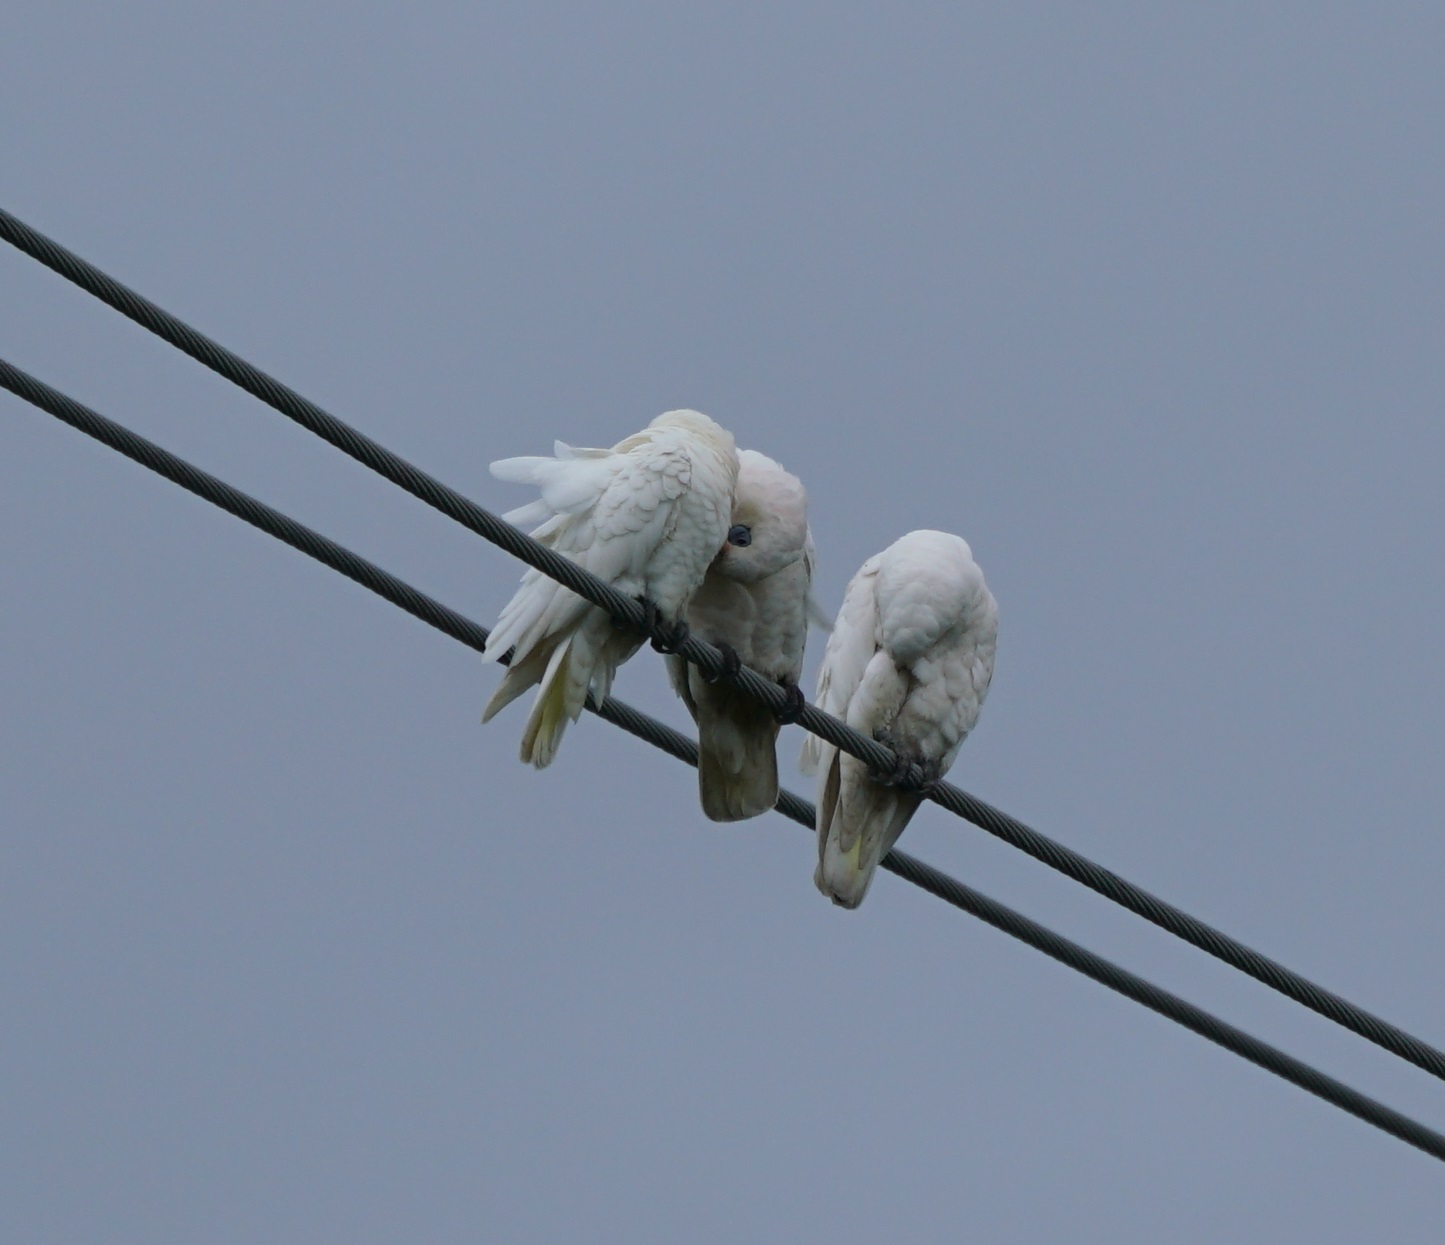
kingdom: Animalia
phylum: Chordata
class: Aves
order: Psittaciformes
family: Psittacidae
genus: Cacatua
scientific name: Cacatua sanguinea
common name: Little corella
